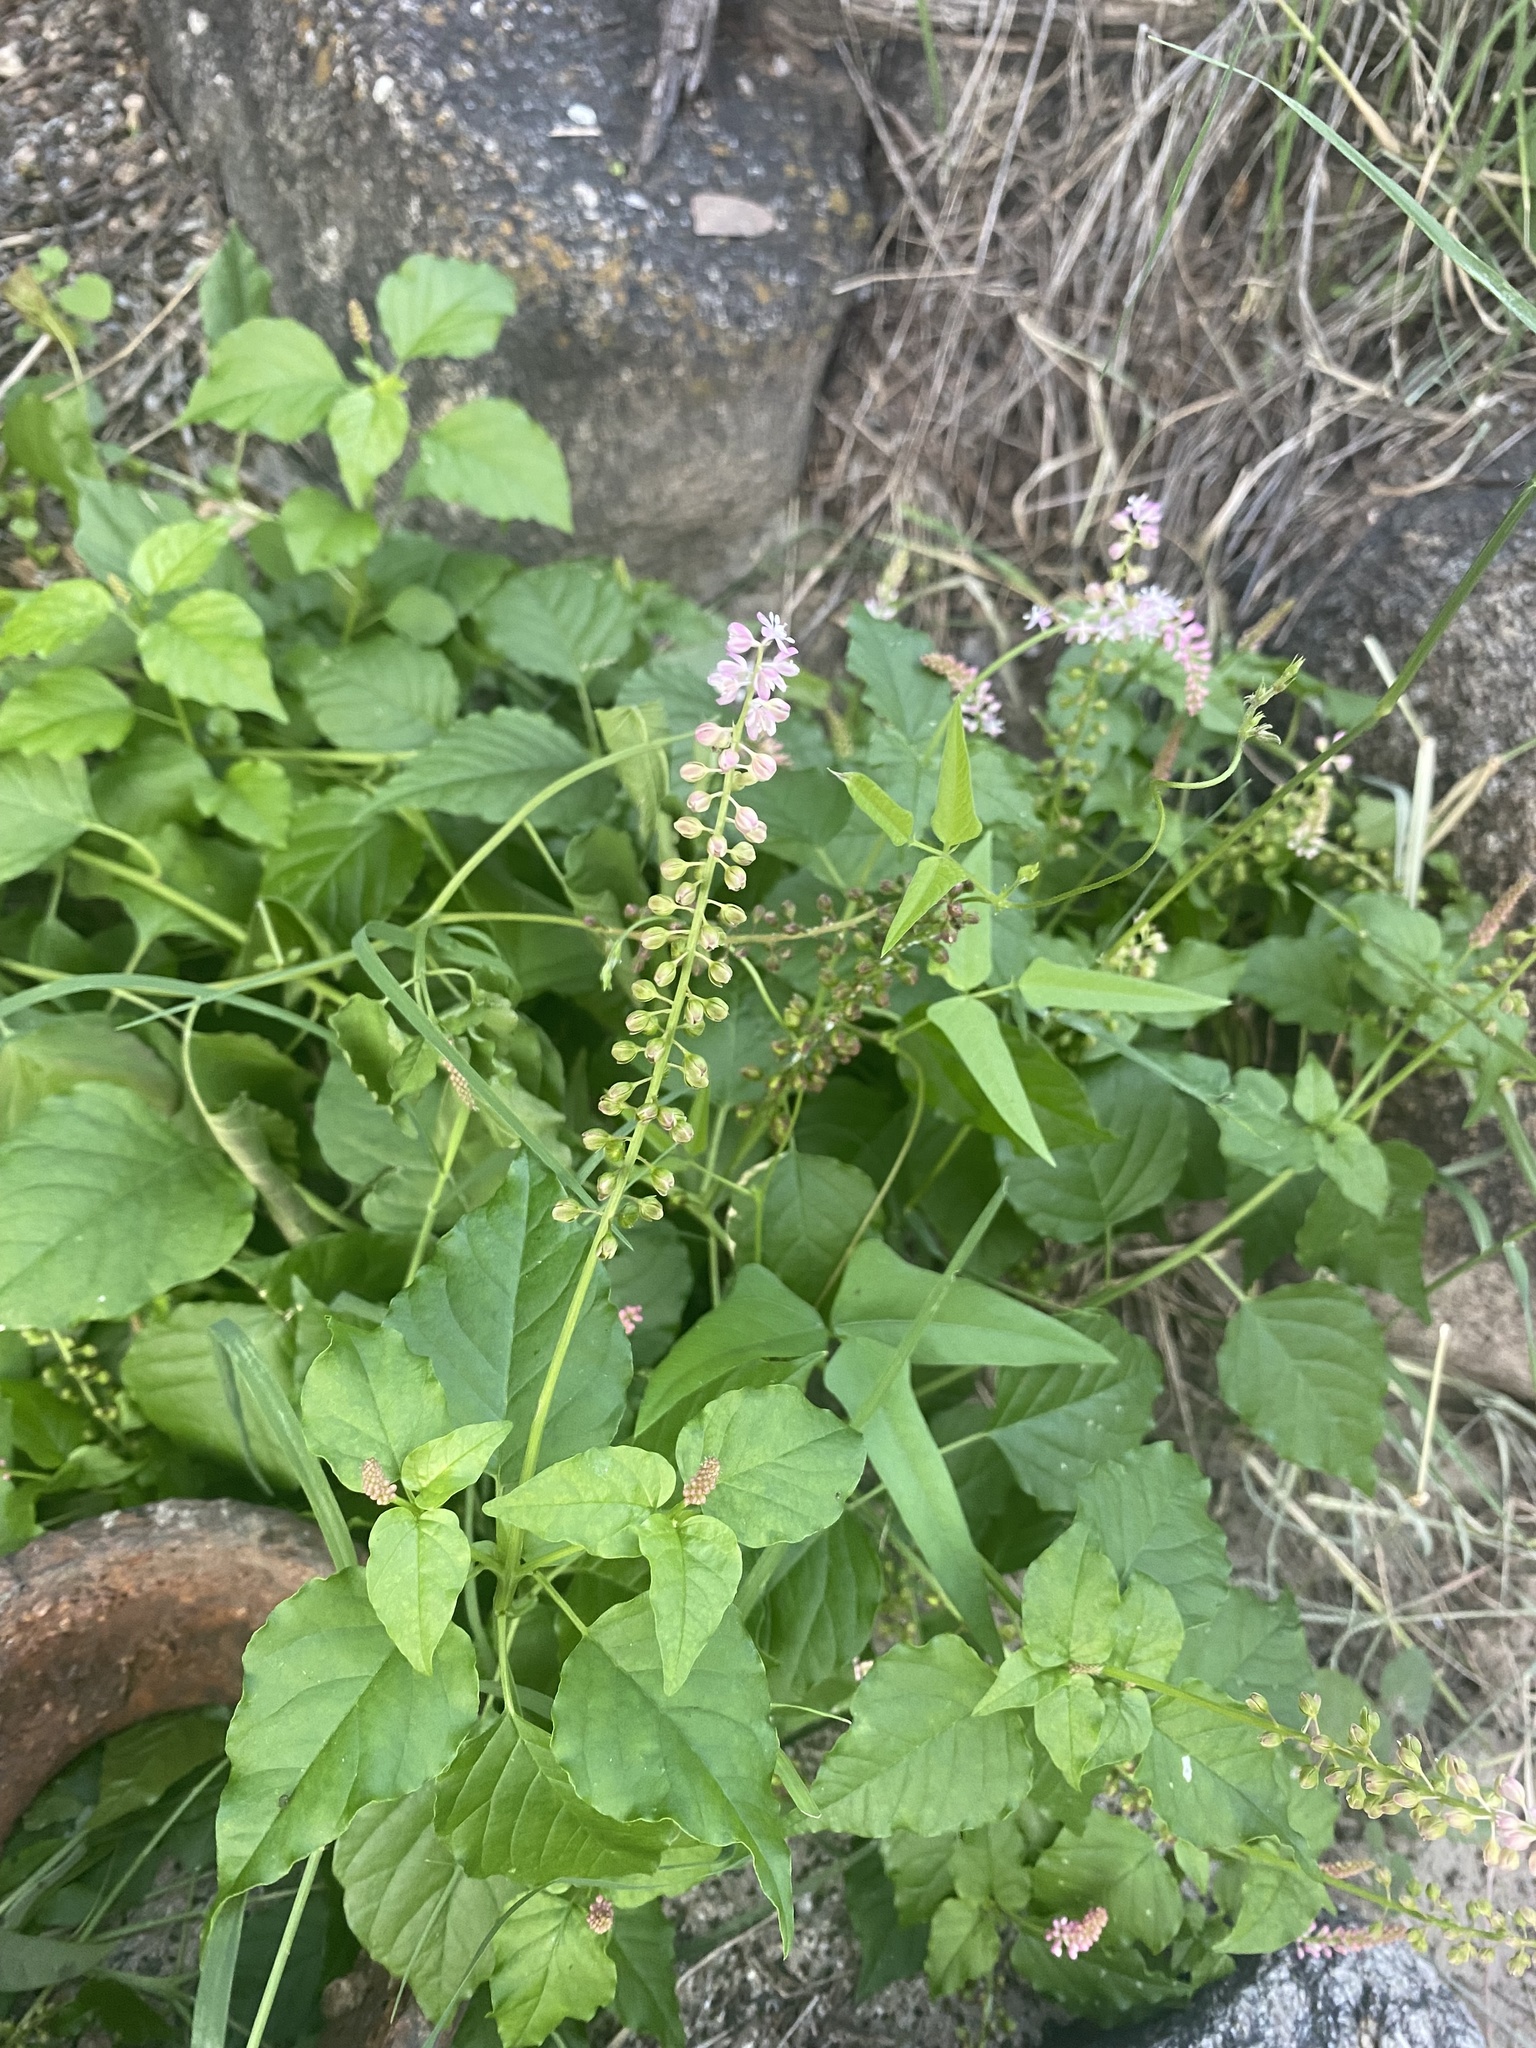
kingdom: Plantae
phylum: Tracheophyta
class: Magnoliopsida
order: Caryophyllales
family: Phytolaccaceae
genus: Rivina
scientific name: Rivina humilis
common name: Rougeplant
